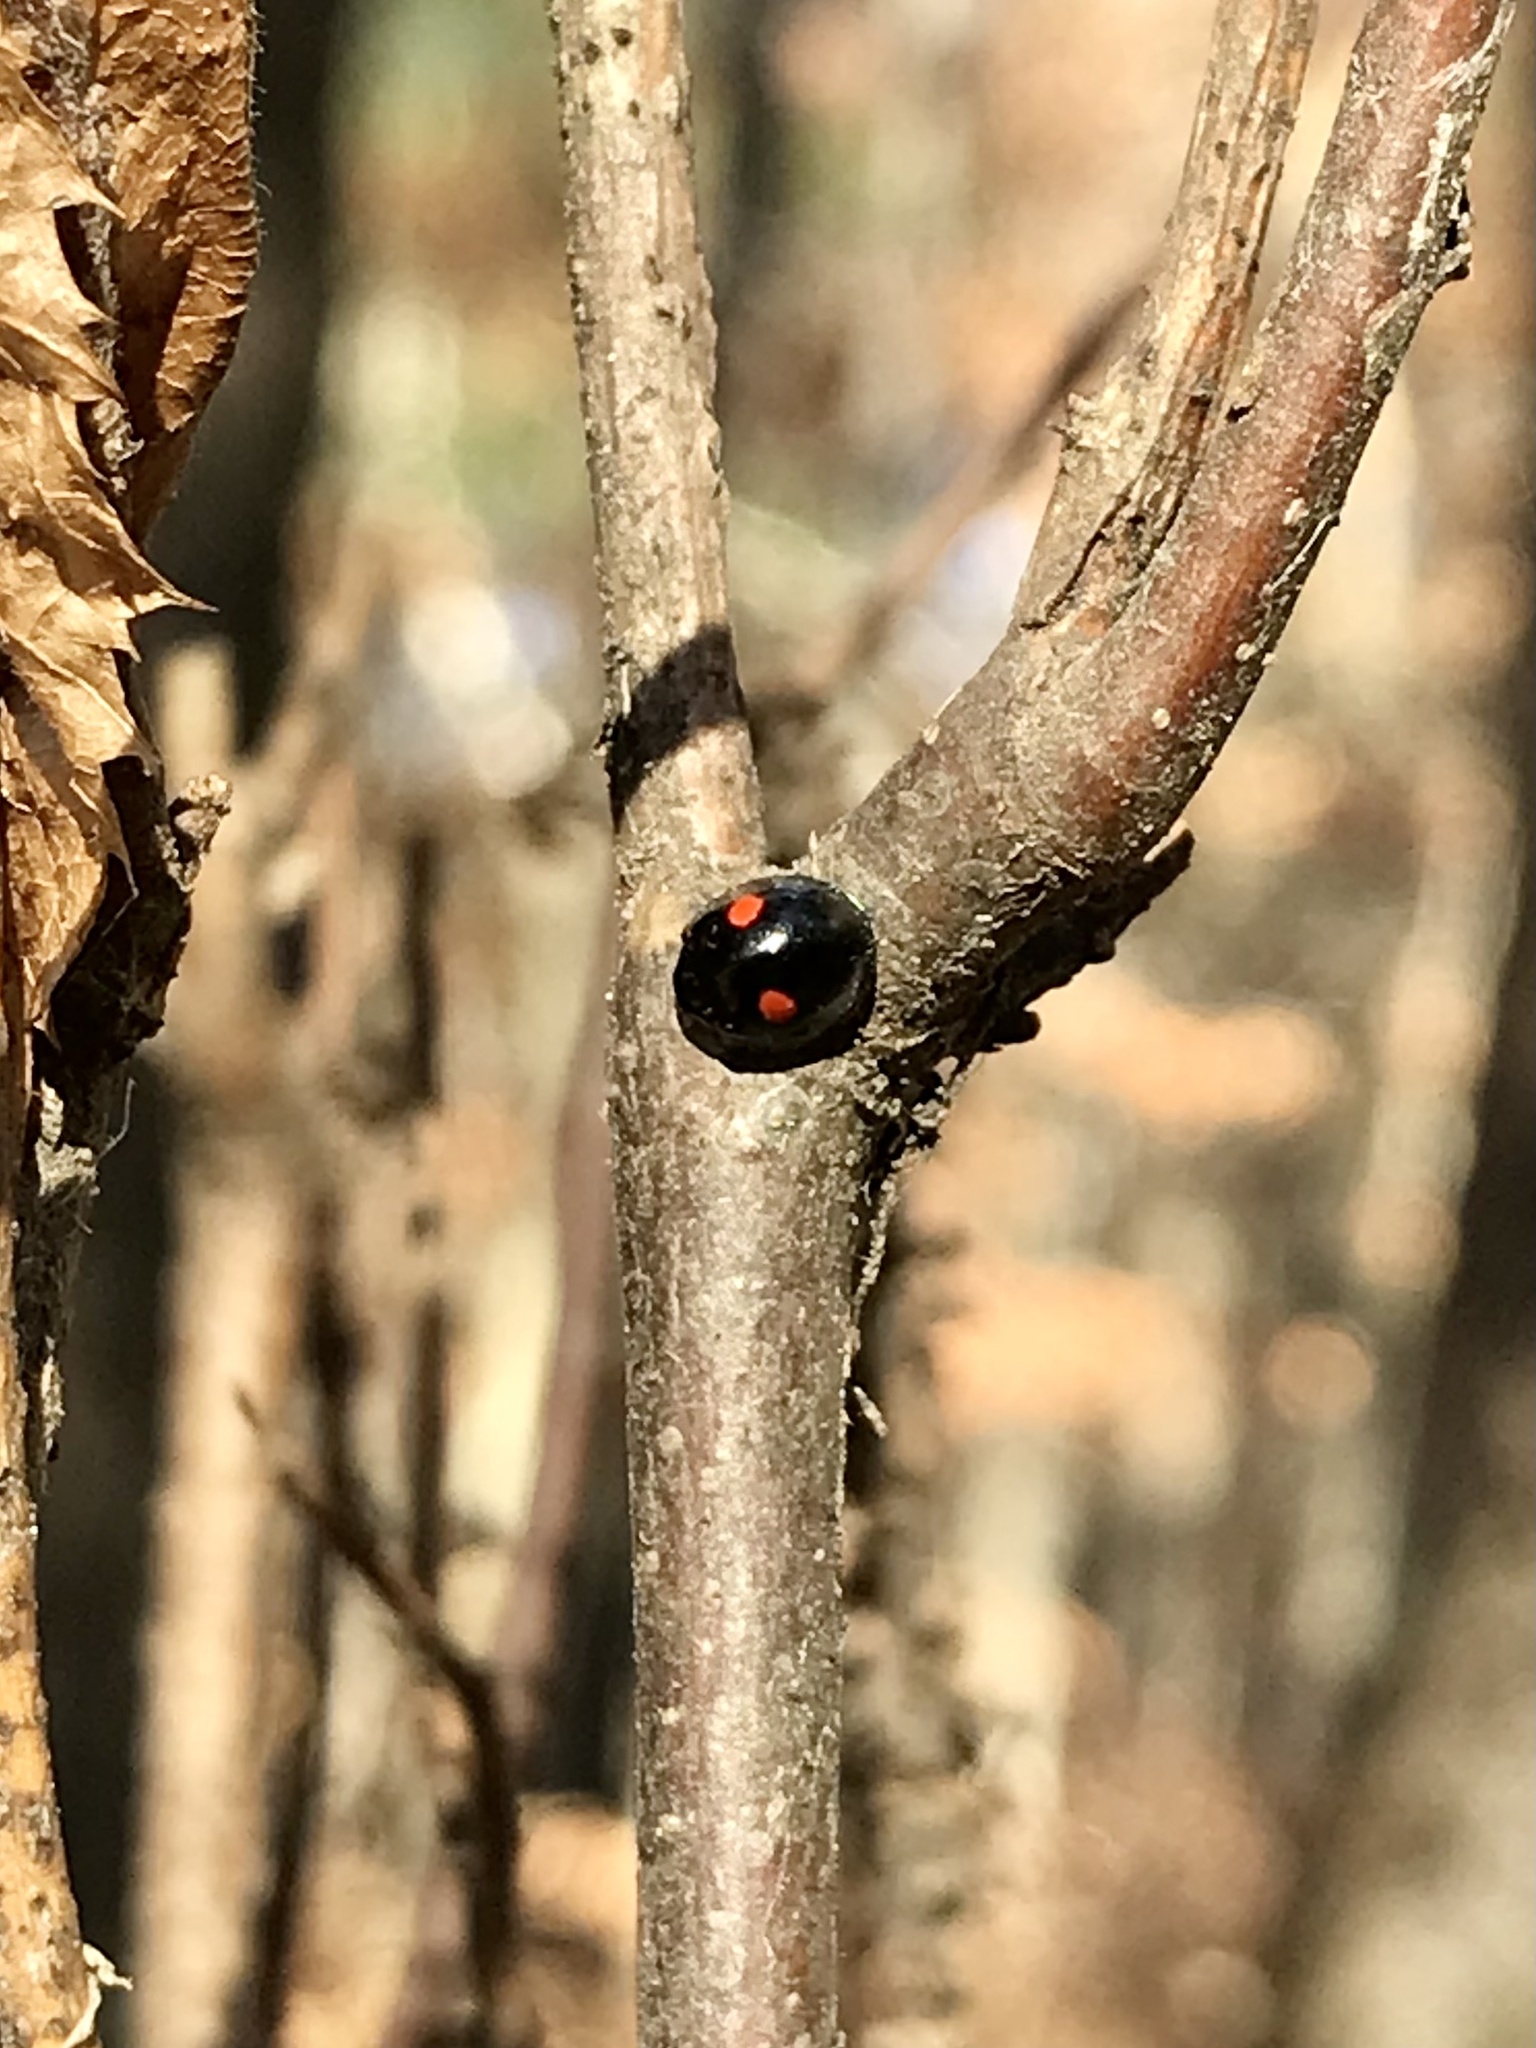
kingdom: Animalia
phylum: Arthropoda
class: Insecta
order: Coleoptera
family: Coccinellidae
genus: Chilocorus
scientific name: Chilocorus stigma
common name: Twicestabbed lady beetle
